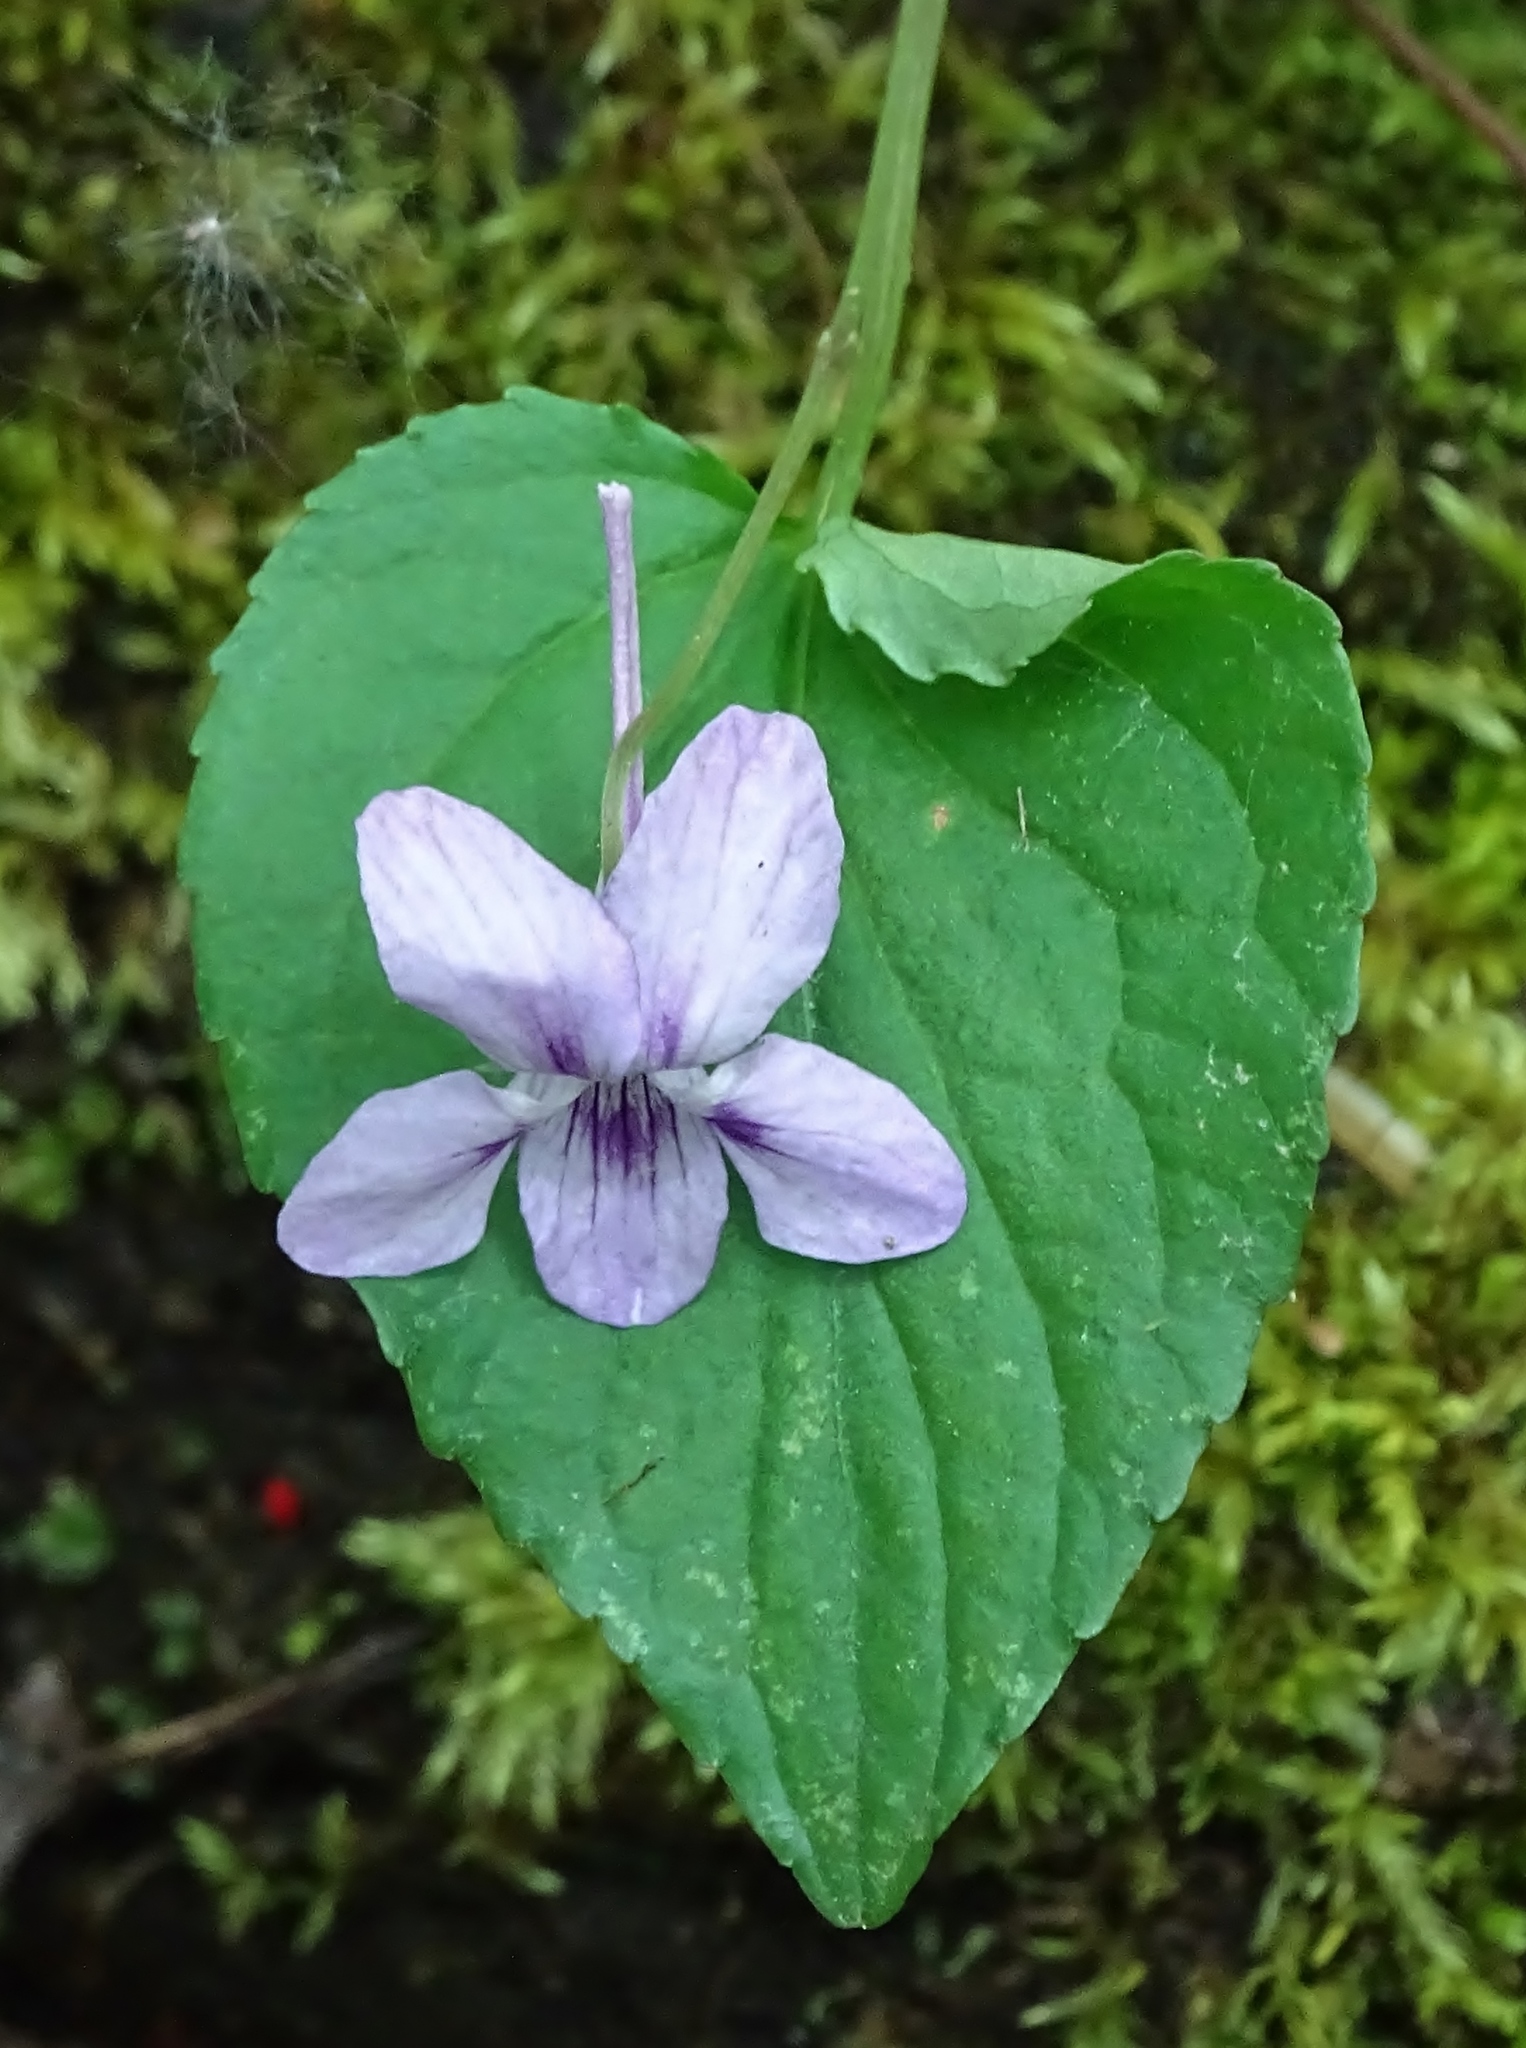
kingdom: Plantae
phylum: Tracheophyta
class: Magnoliopsida
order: Malpighiales
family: Violaceae
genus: Viola
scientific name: Viola rostrata
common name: Long-spur violet
